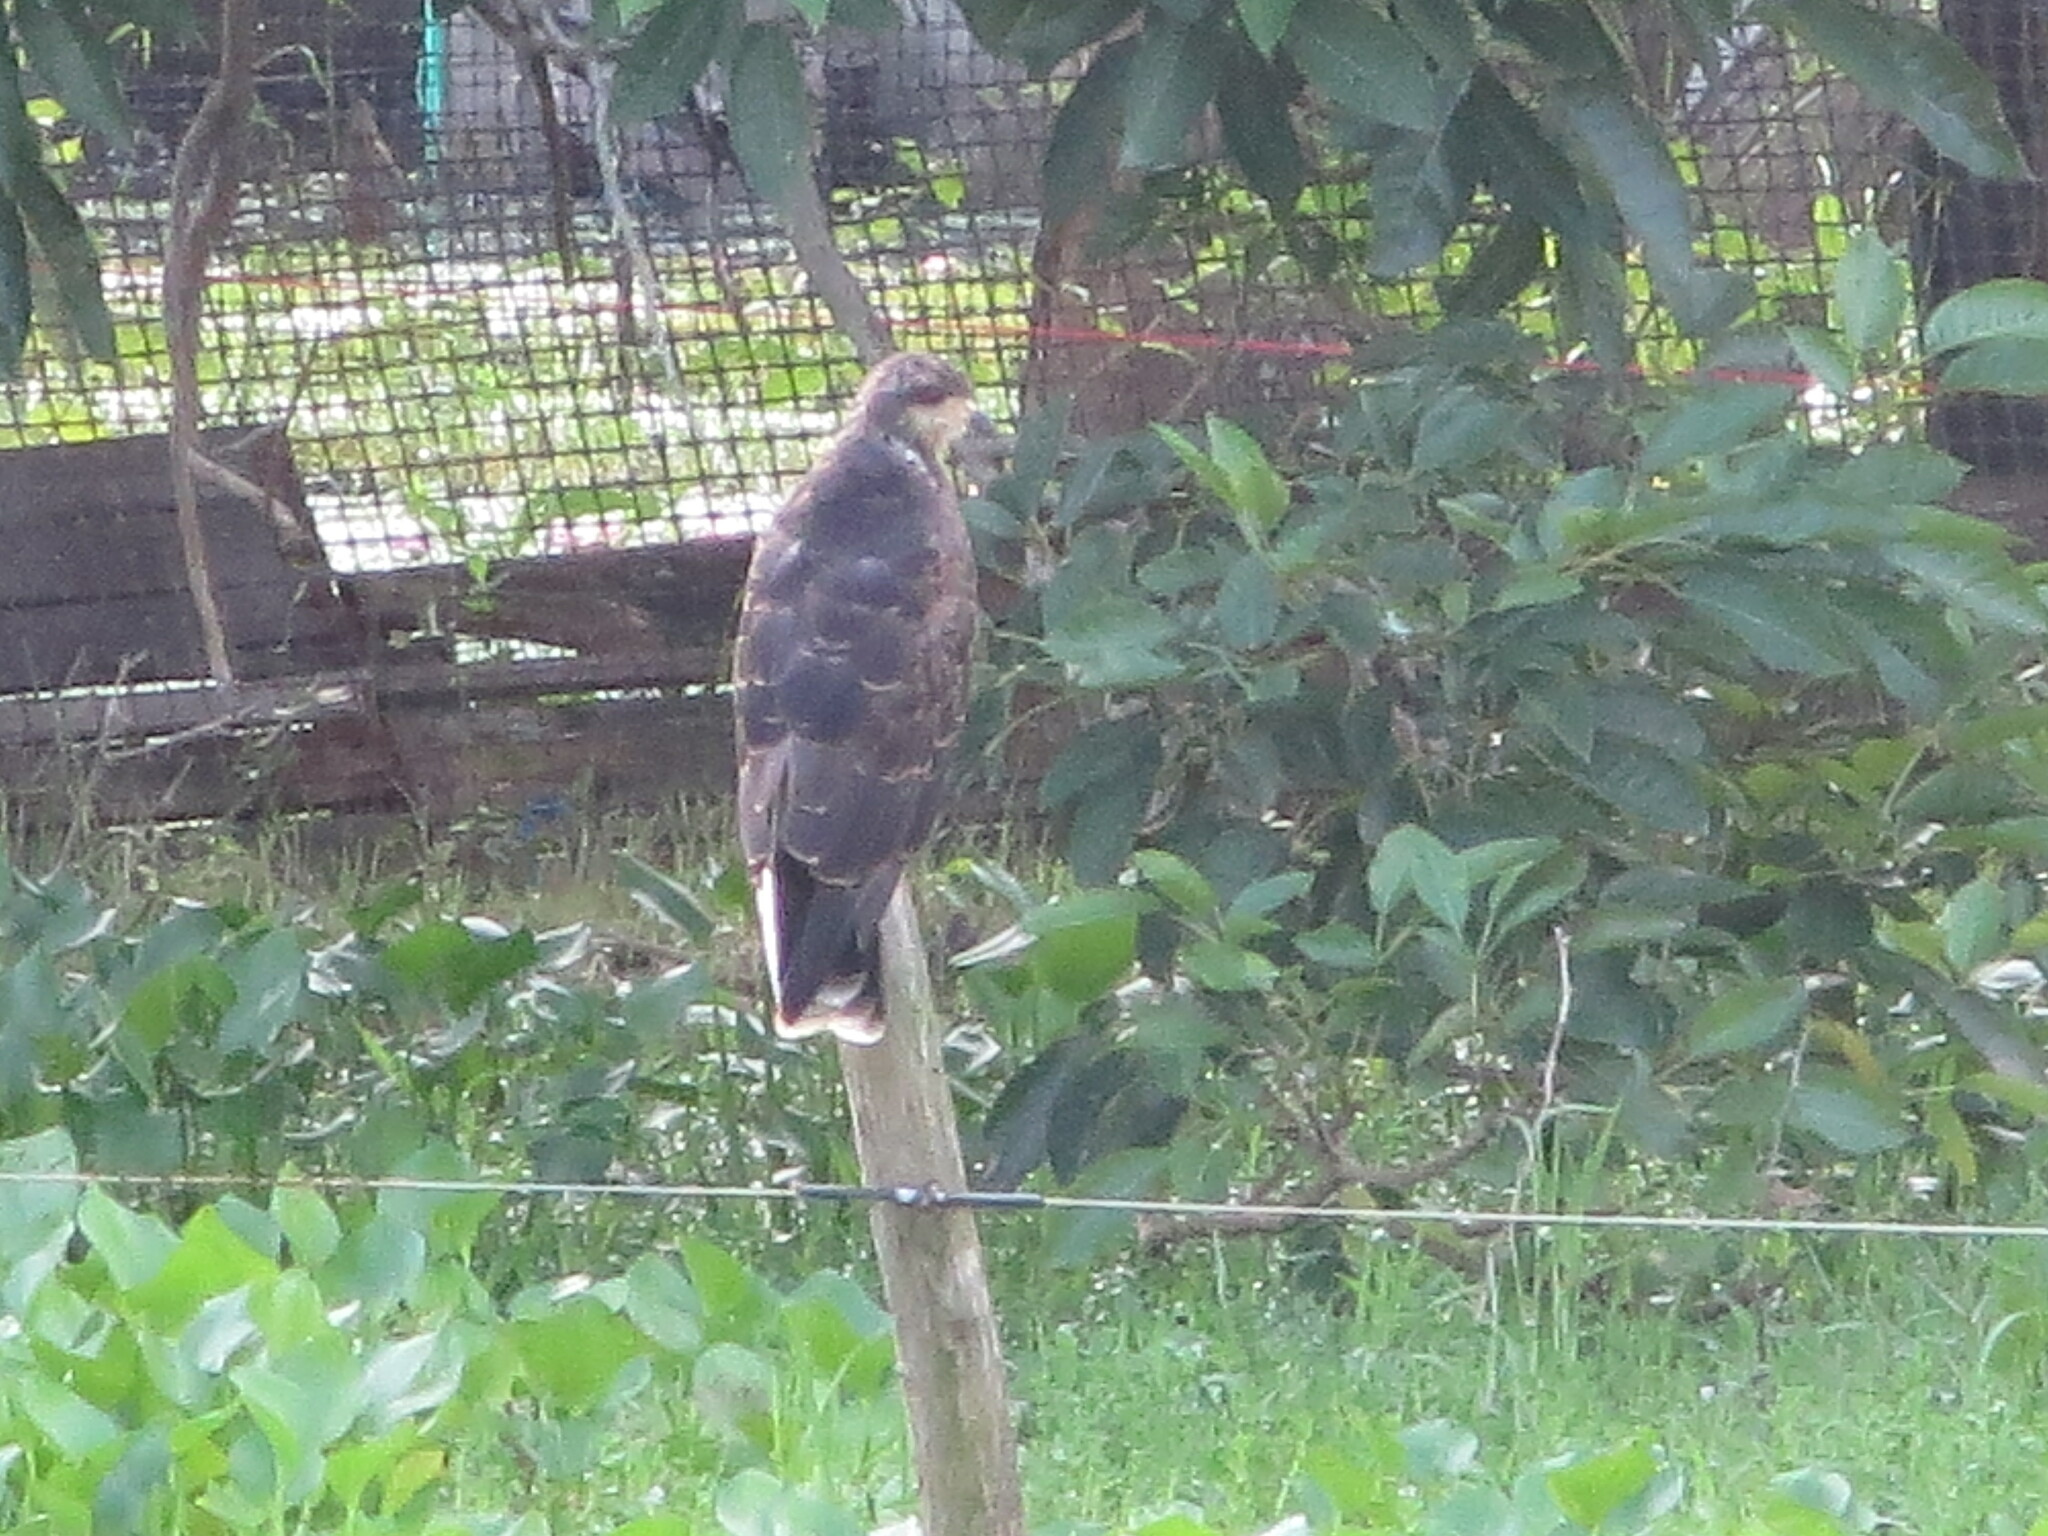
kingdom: Animalia
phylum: Chordata
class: Aves
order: Accipitriformes
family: Accipitridae
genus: Rostrhamus
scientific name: Rostrhamus sociabilis
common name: Snail kite
